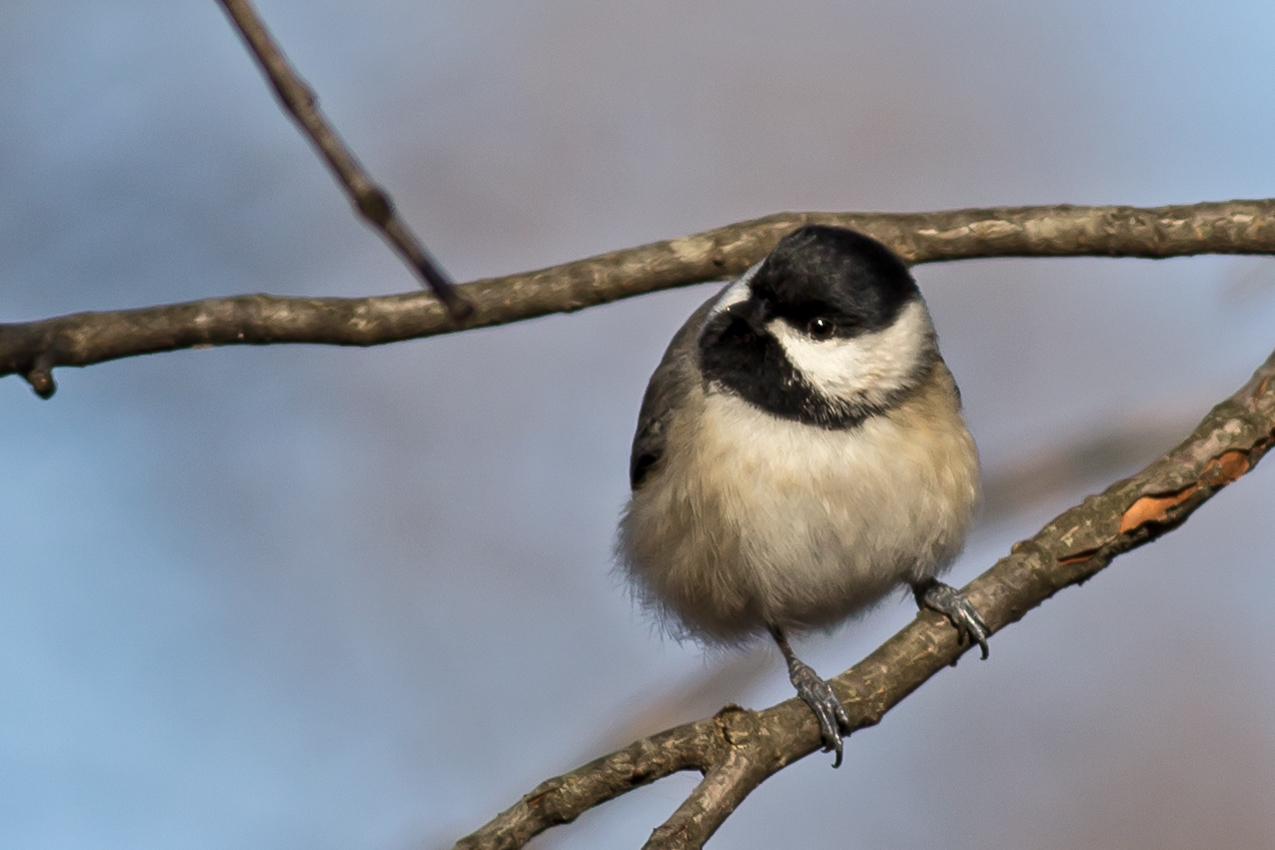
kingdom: Animalia
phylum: Chordata
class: Aves
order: Passeriformes
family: Paridae
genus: Poecile
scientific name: Poecile carolinensis
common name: Carolina chickadee
